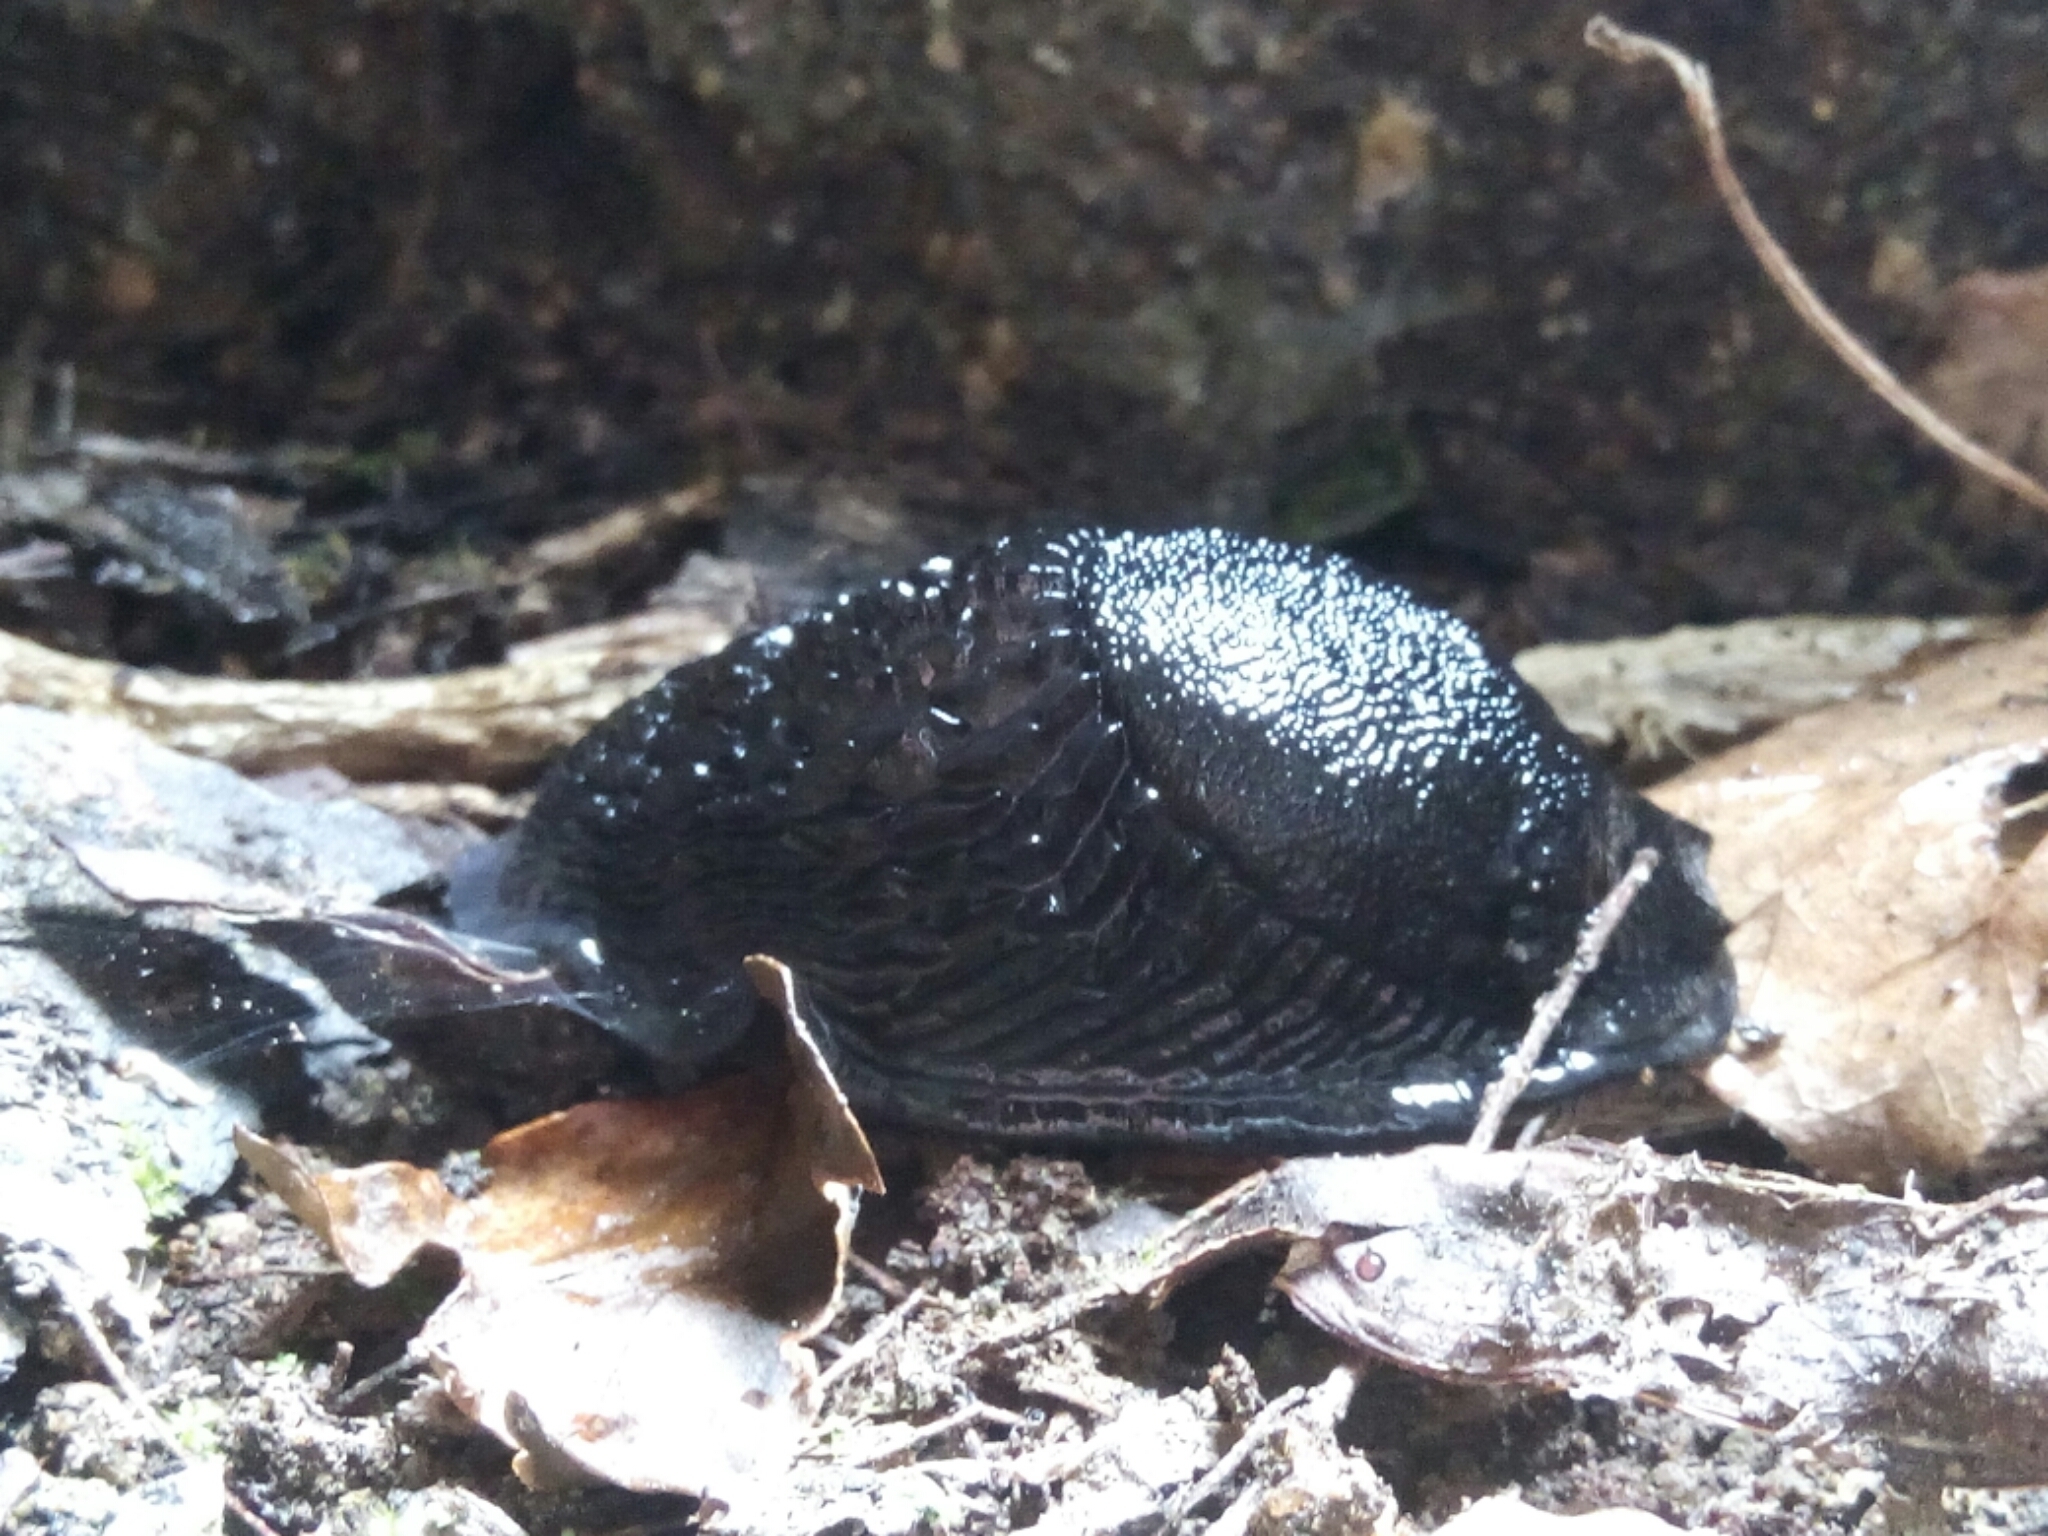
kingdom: Animalia
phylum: Mollusca
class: Gastropoda
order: Stylommatophora
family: Arionidae
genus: Arion
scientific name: Arion ater
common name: Black arion
